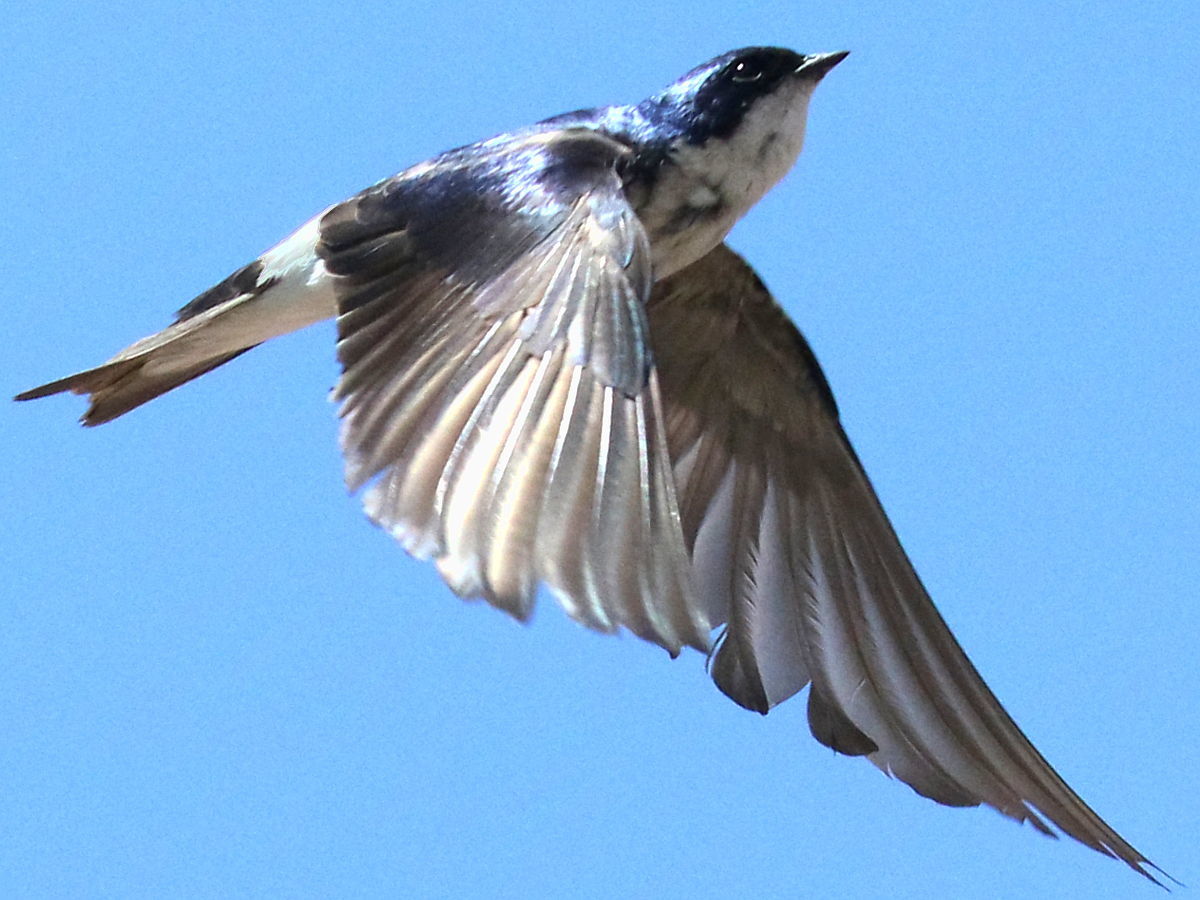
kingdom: Animalia
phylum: Chordata
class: Aves
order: Passeriformes
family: Hirundinidae
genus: Tachycineta
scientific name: Tachycineta leucopyga
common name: Chilean swallow
